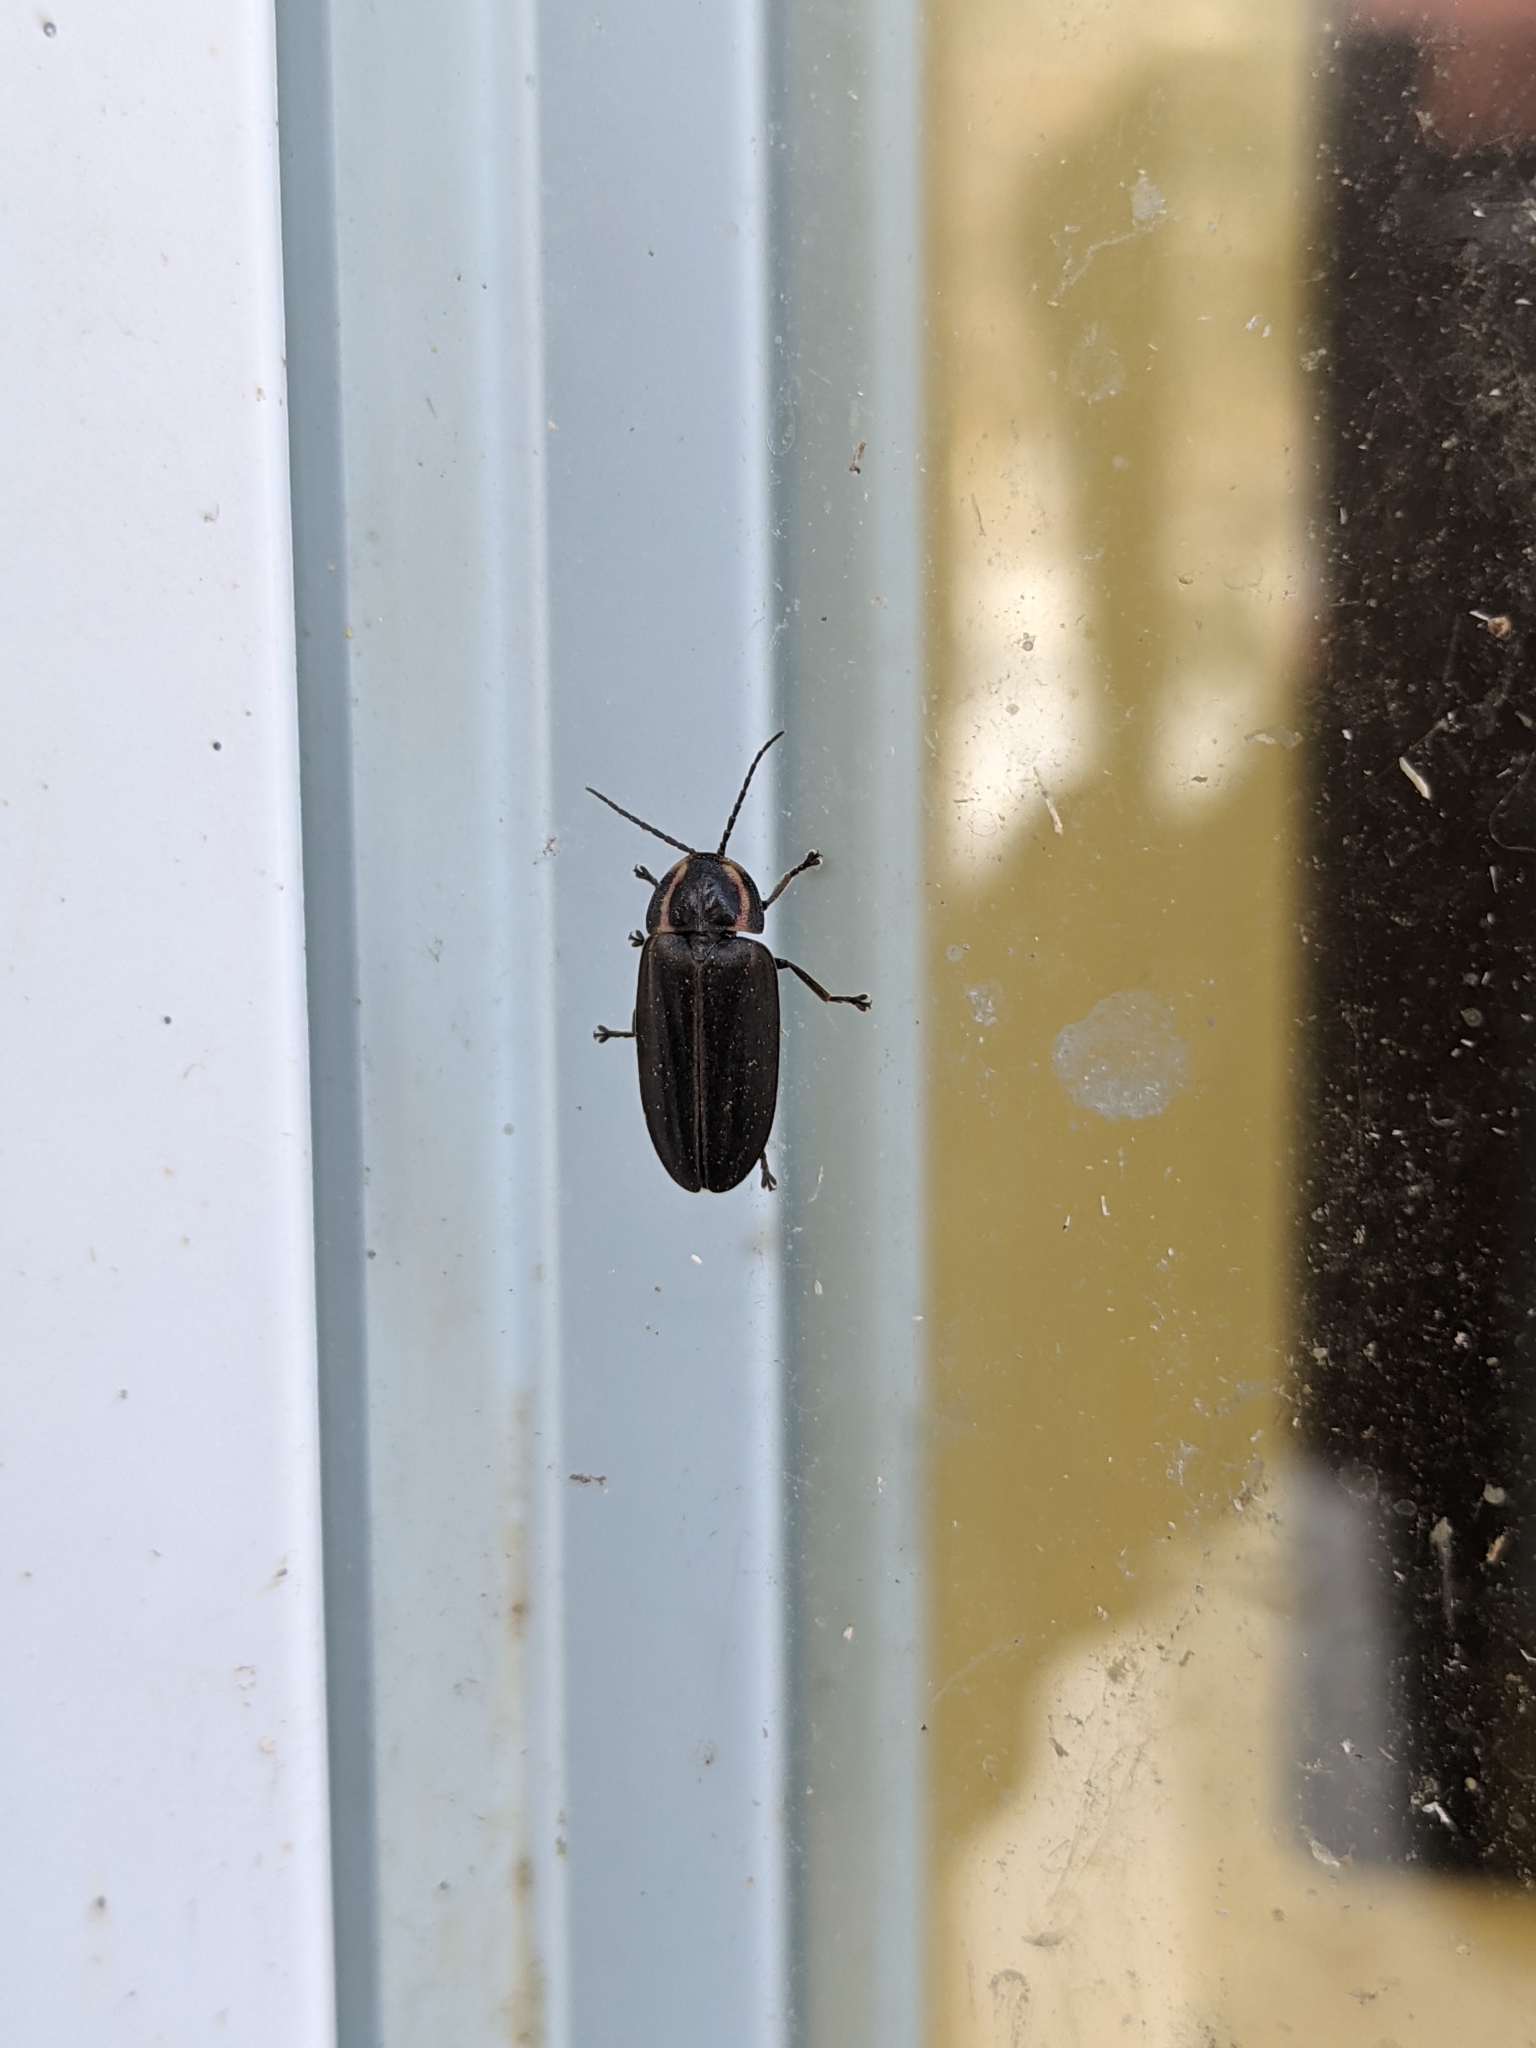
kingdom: Animalia
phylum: Arthropoda
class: Insecta
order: Coleoptera
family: Lampyridae
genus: Photinus
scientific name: Photinus corrusca
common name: Winter firefly
